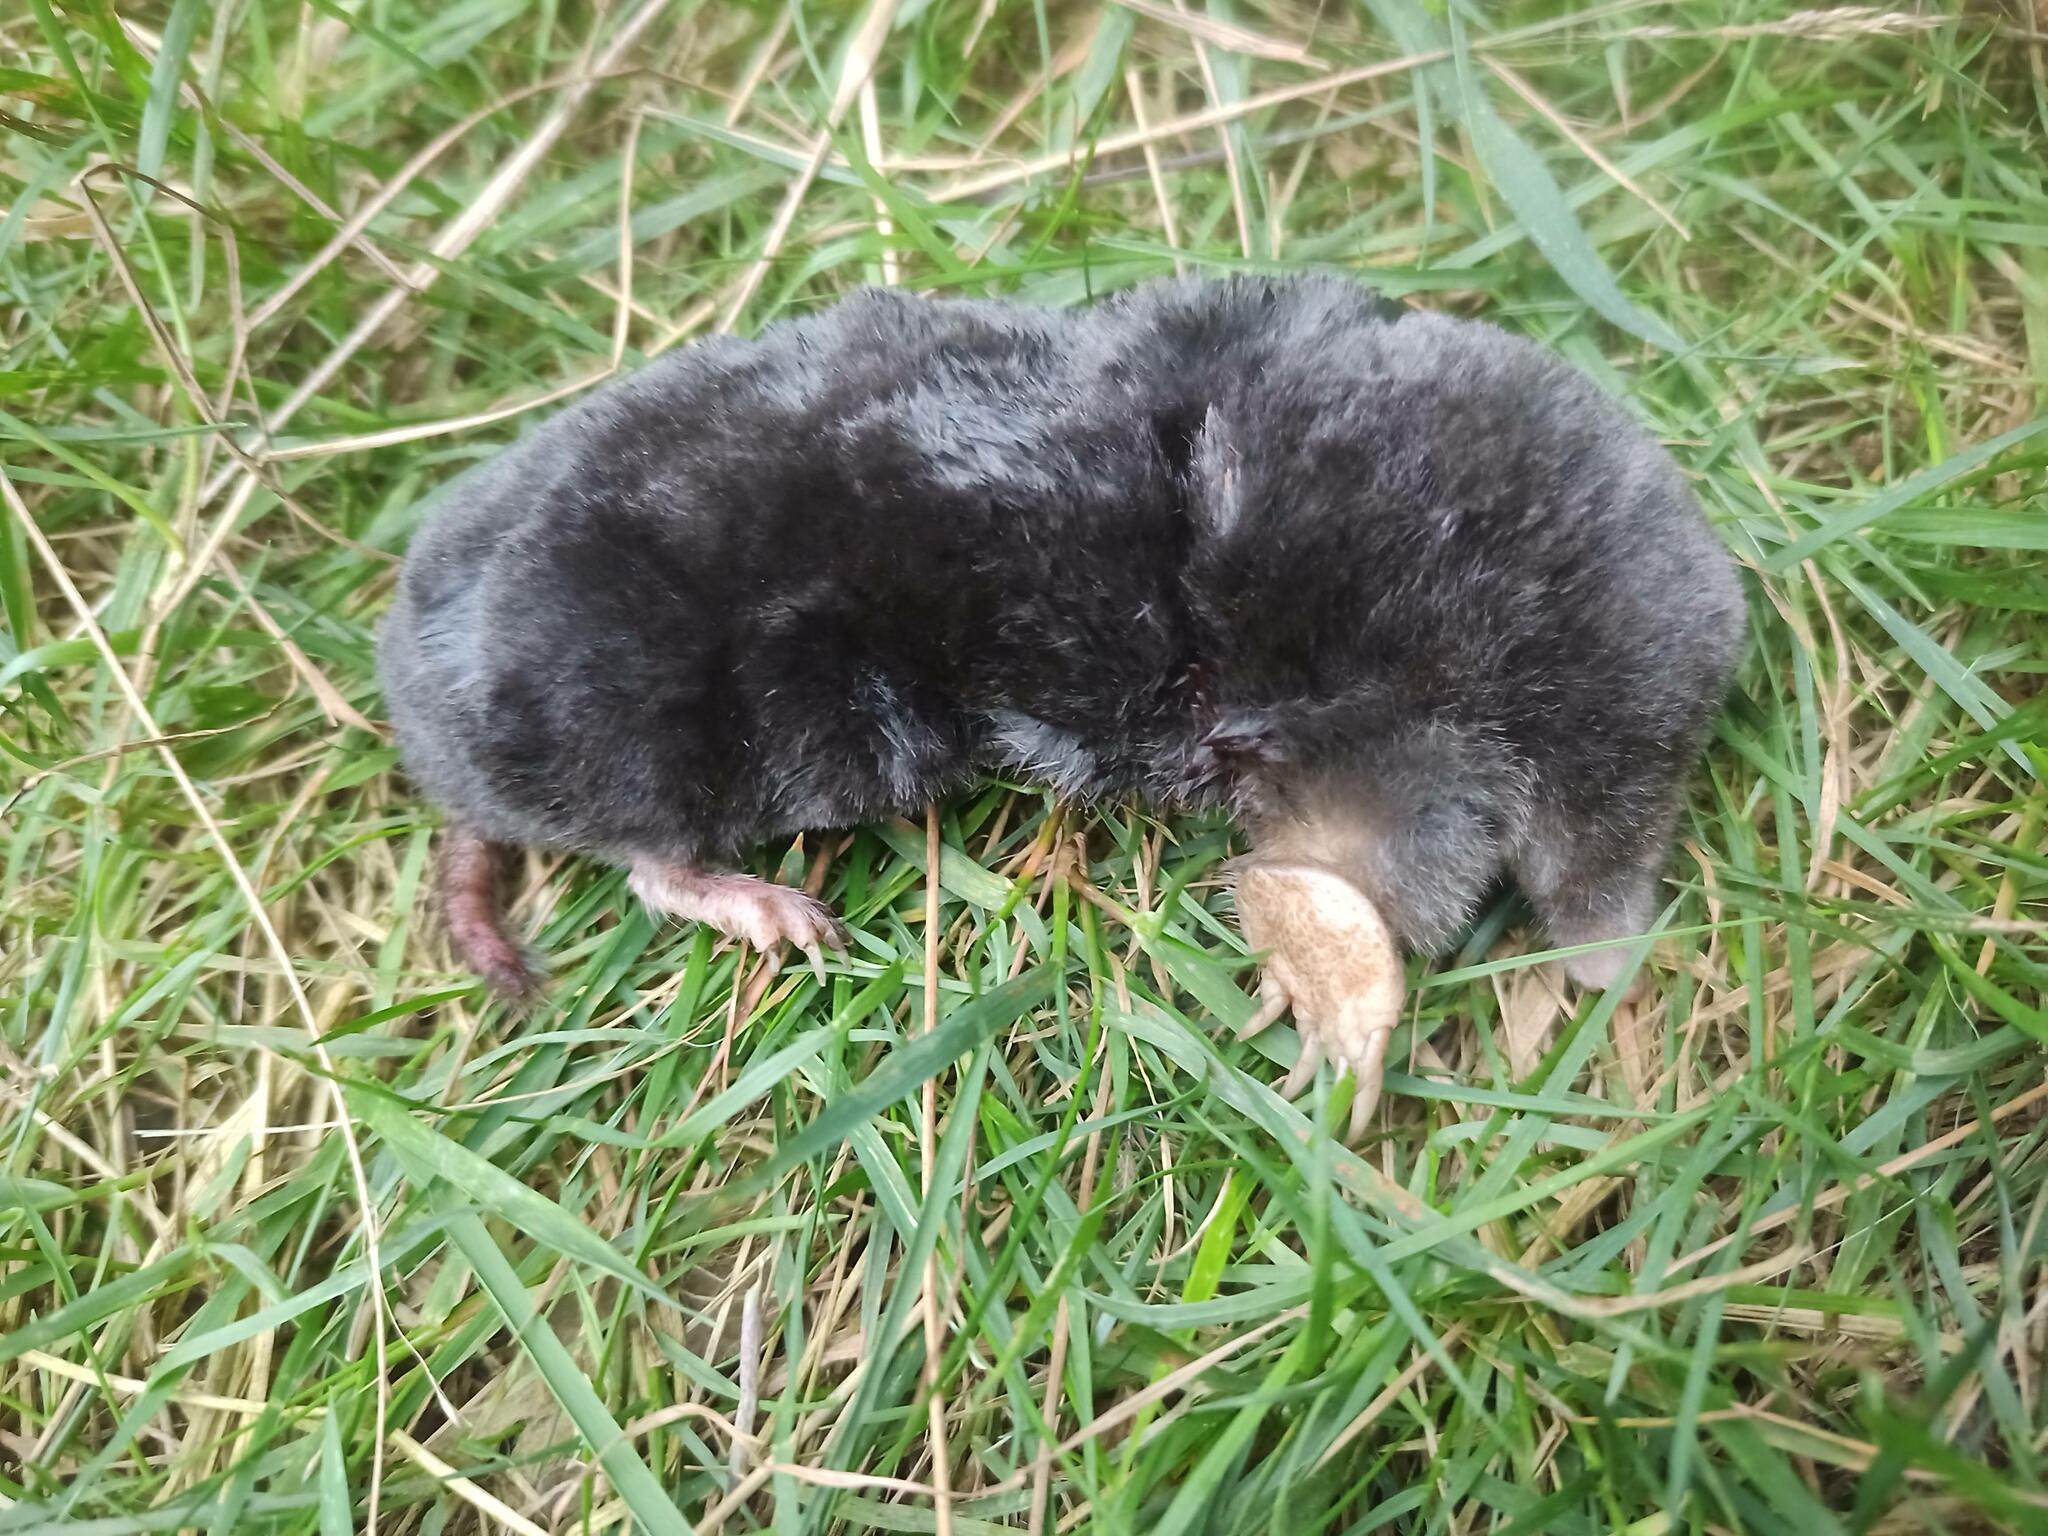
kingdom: Animalia
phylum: Chordata
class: Mammalia
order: Soricomorpha
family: Talpidae
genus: Talpa
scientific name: Talpa occidentalis
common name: Iberian mole
